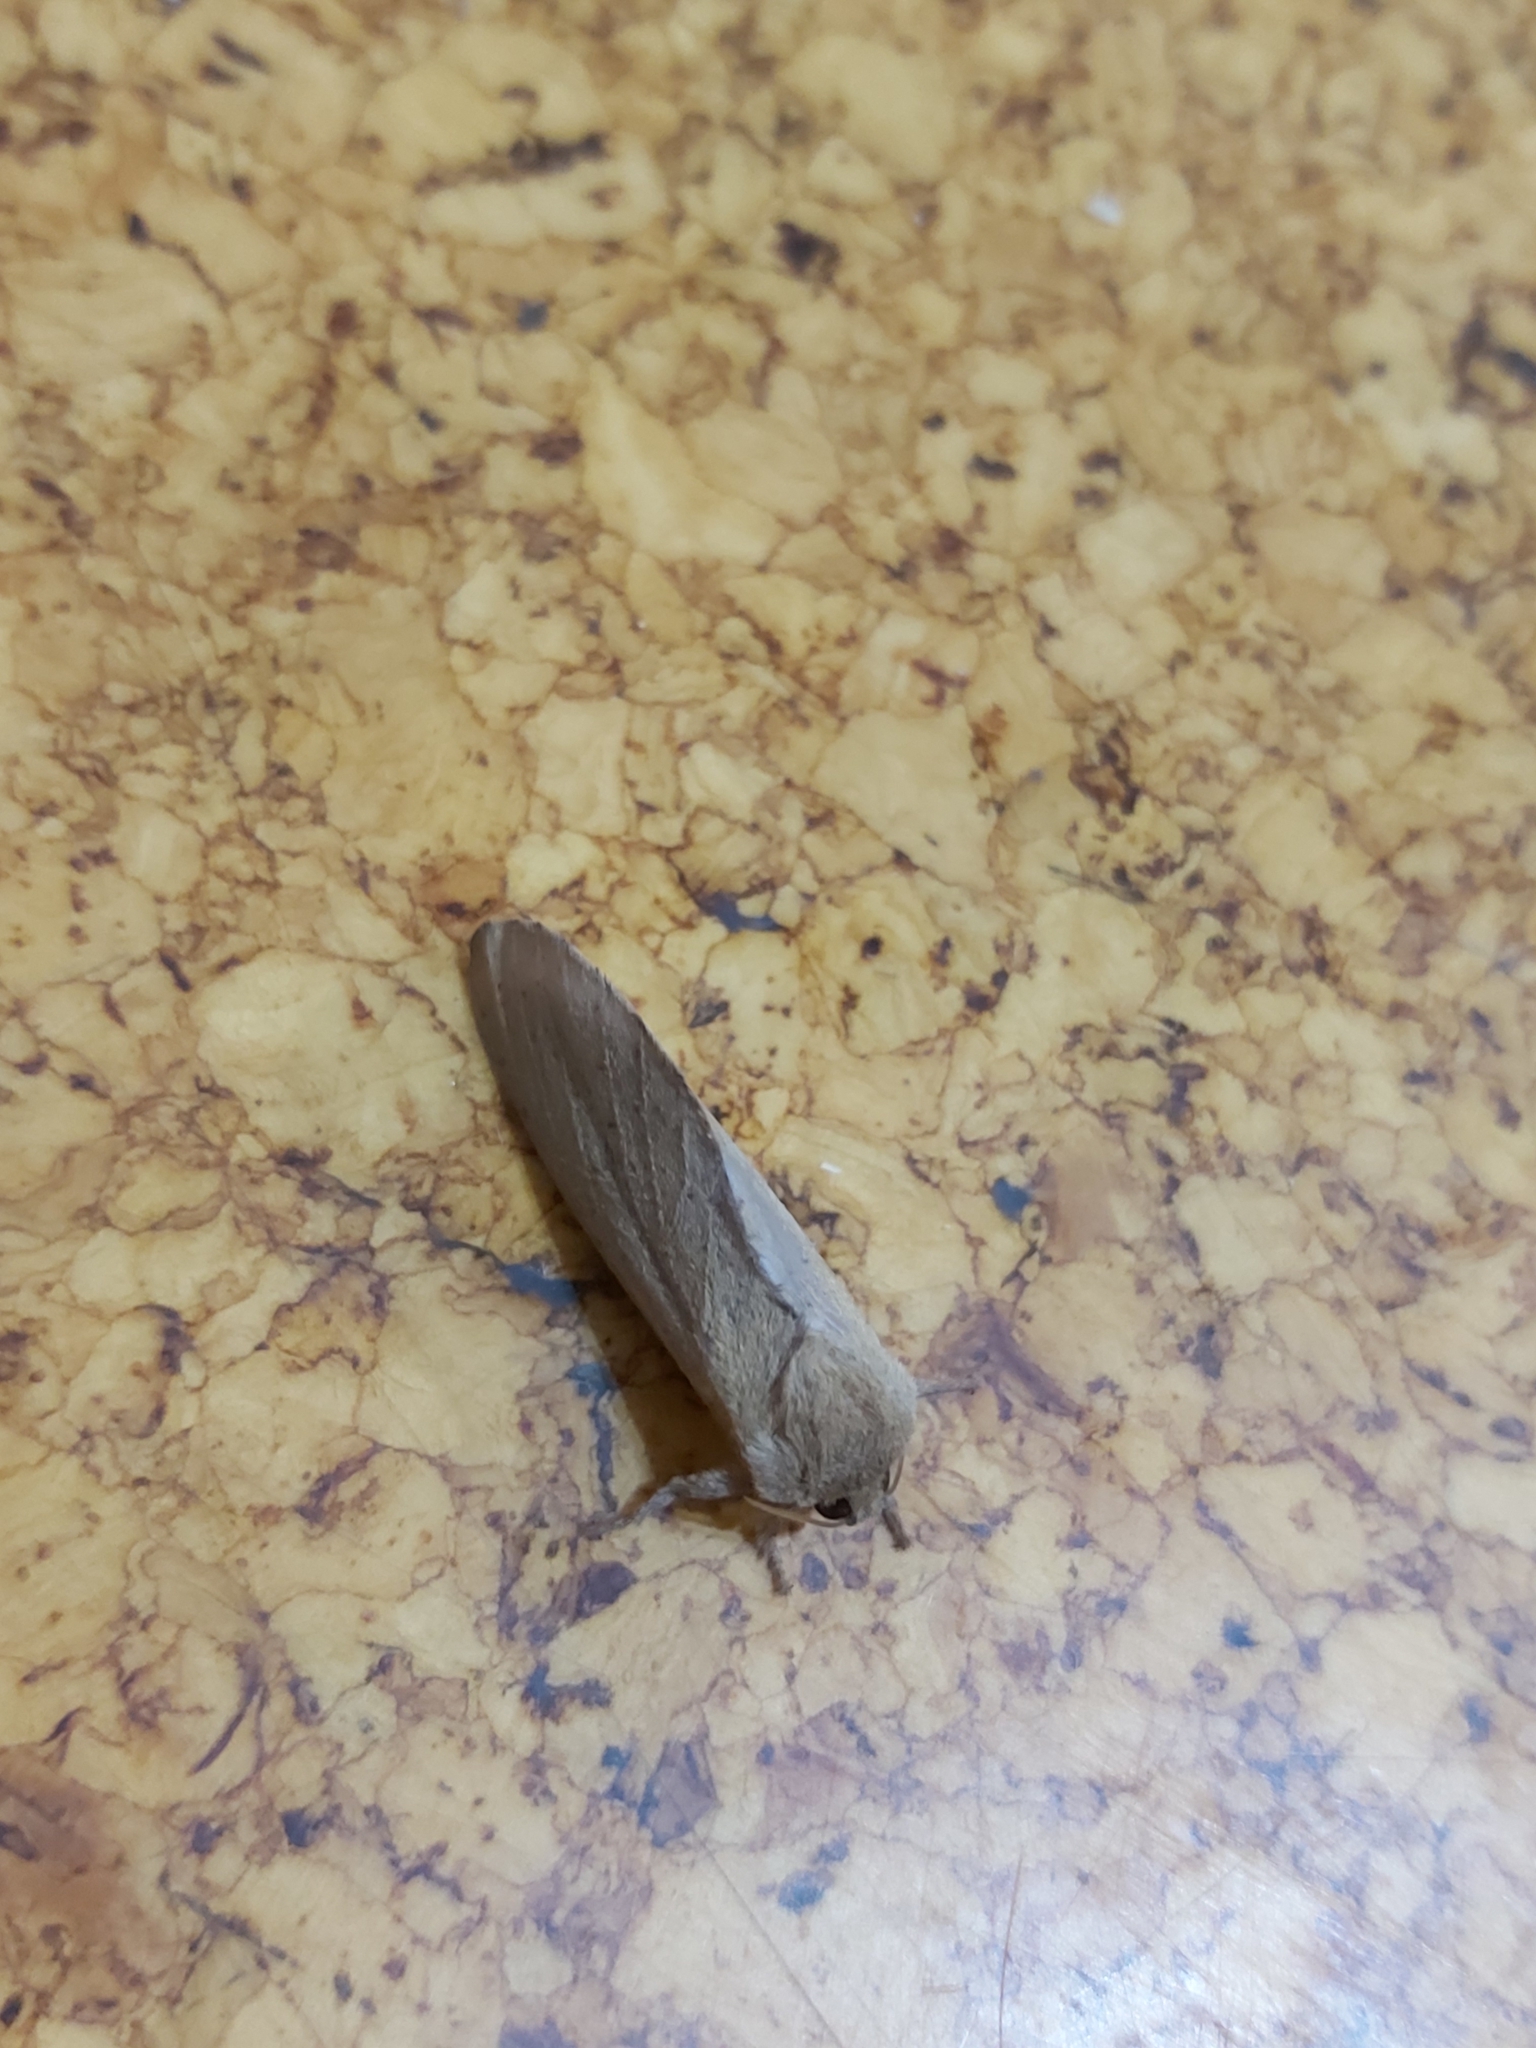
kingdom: Animalia
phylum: Arthropoda
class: Insecta
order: Lepidoptera
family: Hepialidae
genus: Elhamma
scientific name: Elhamma australasiae
